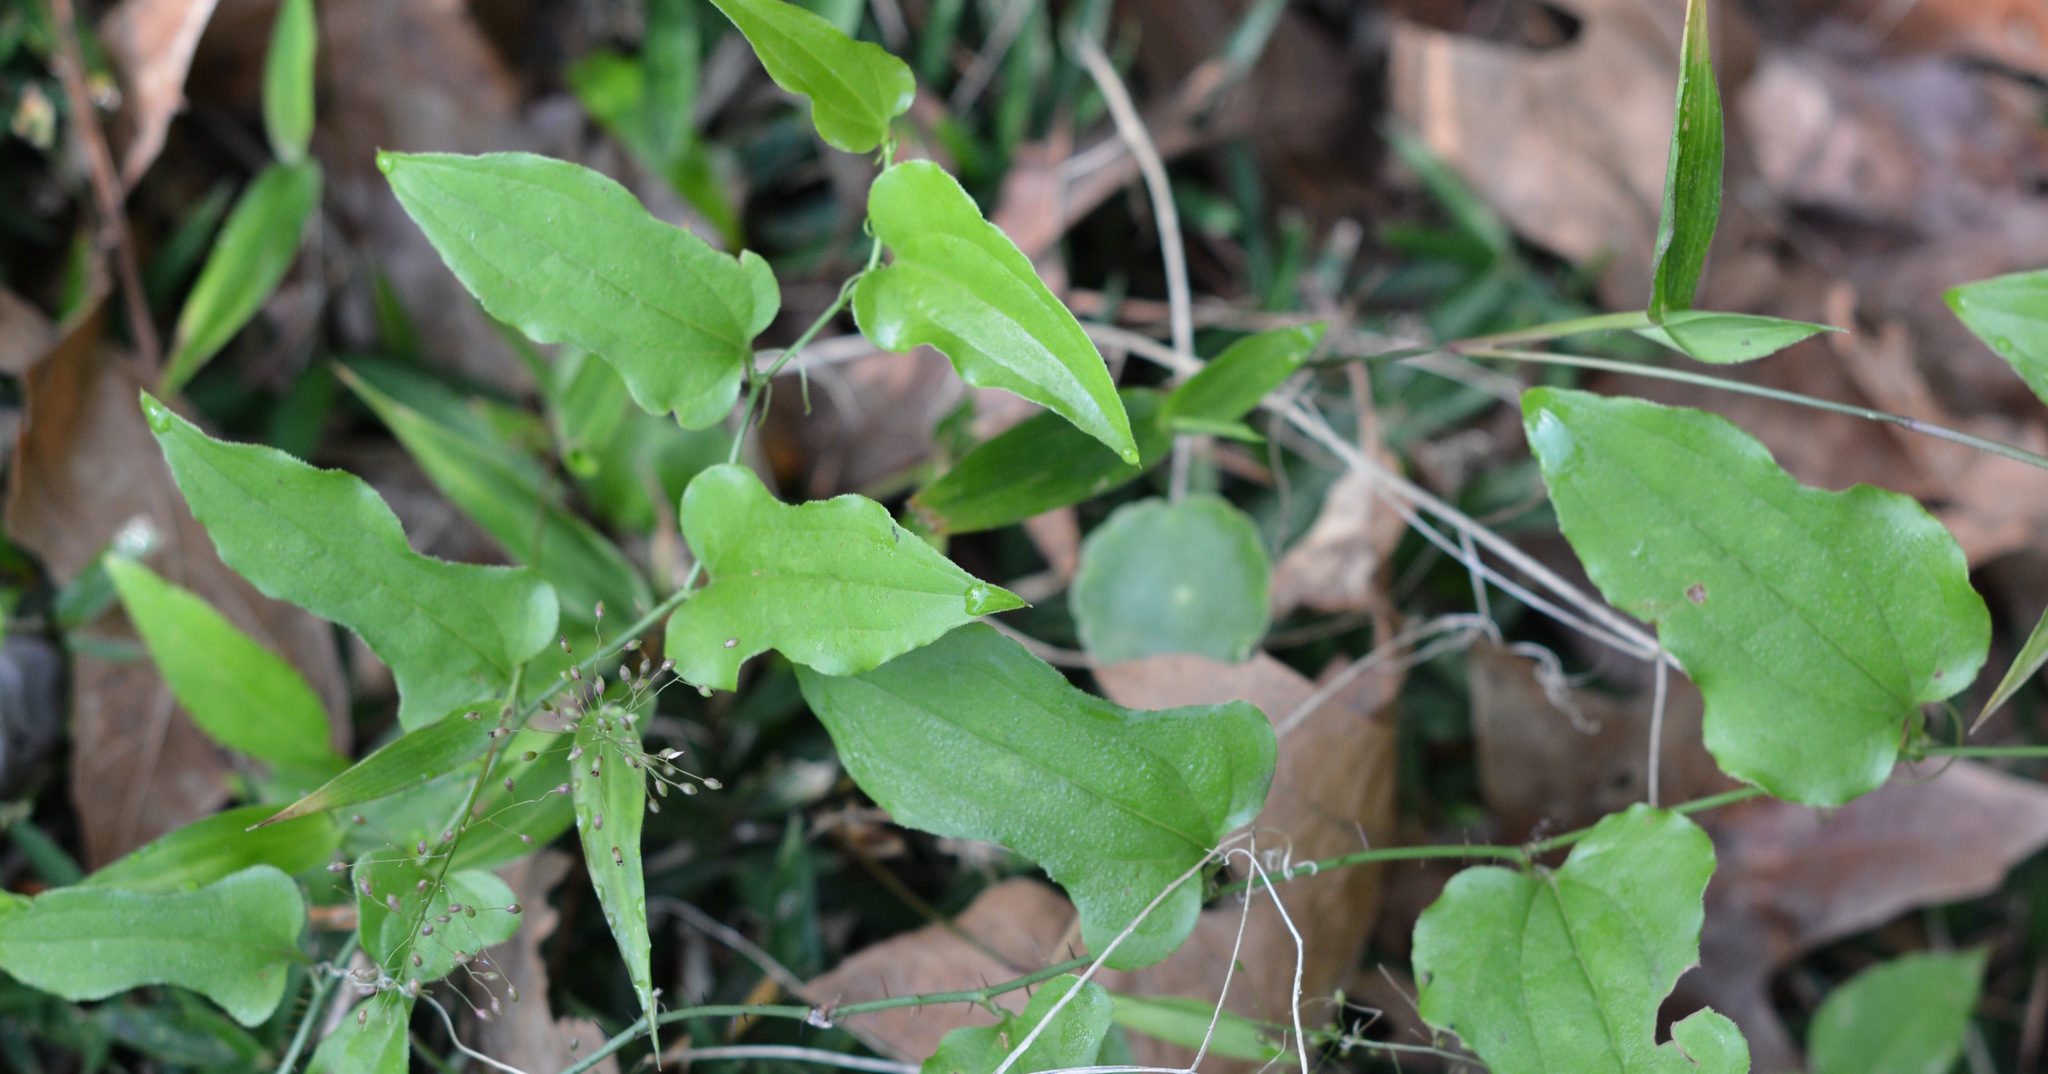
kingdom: Plantae
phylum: Tracheophyta
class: Liliopsida
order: Liliales
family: Smilacaceae
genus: Smilax
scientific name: Smilax tamnoides
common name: Hellfetter
